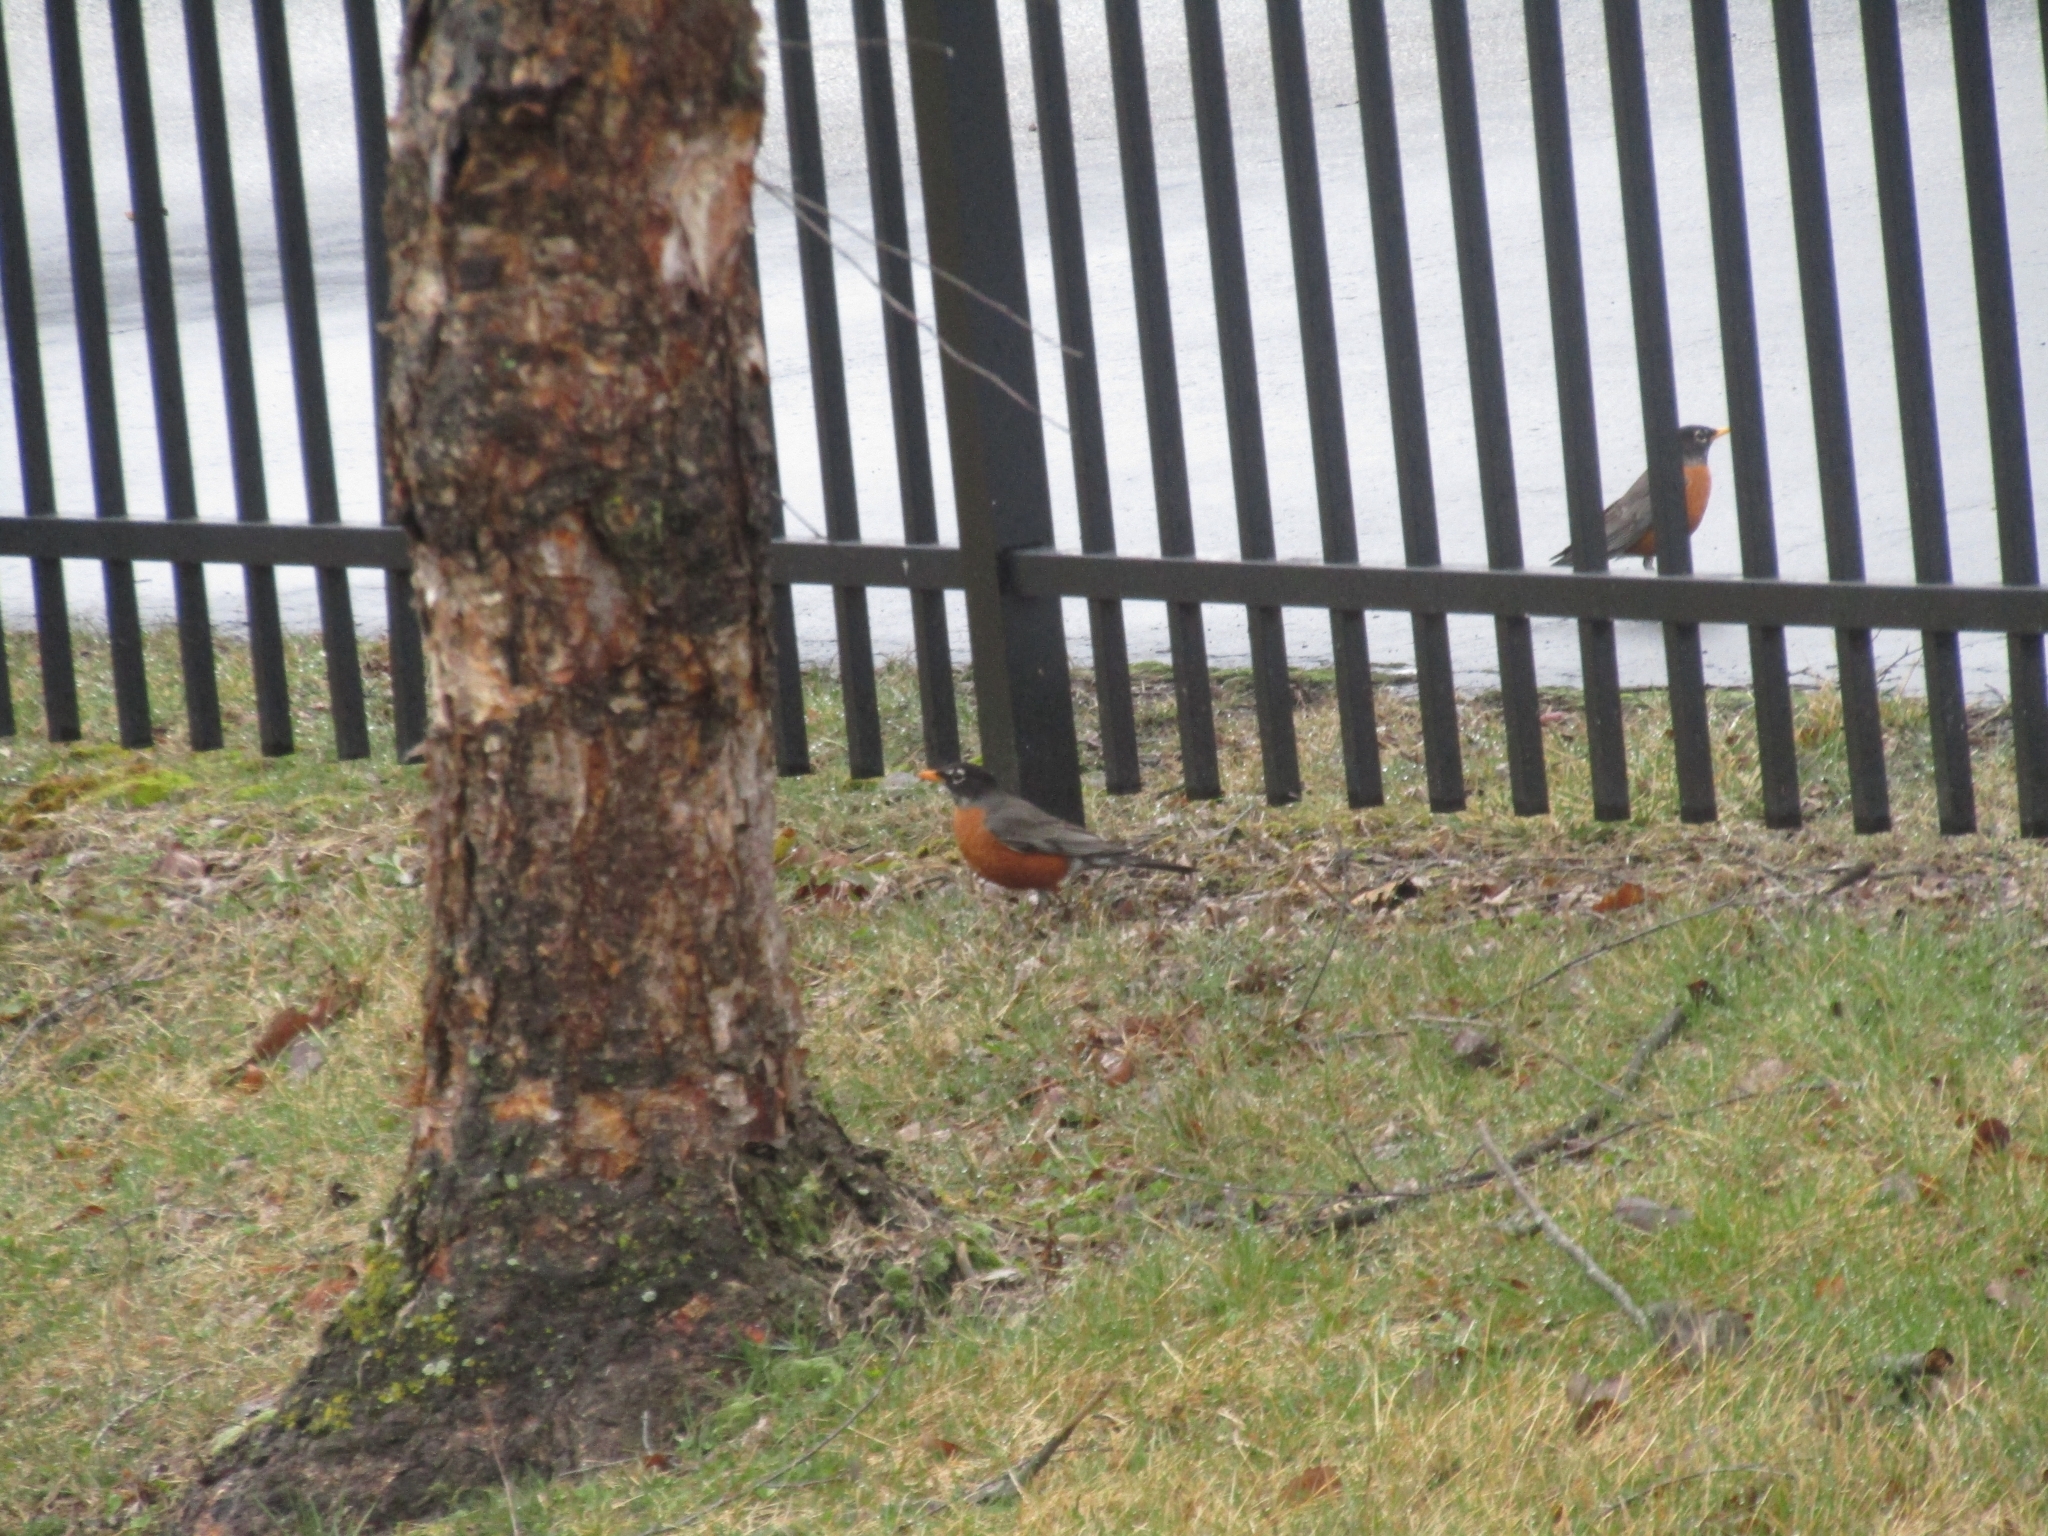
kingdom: Animalia
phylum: Chordata
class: Aves
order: Passeriformes
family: Turdidae
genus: Turdus
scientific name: Turdus migratorius
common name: American robin
